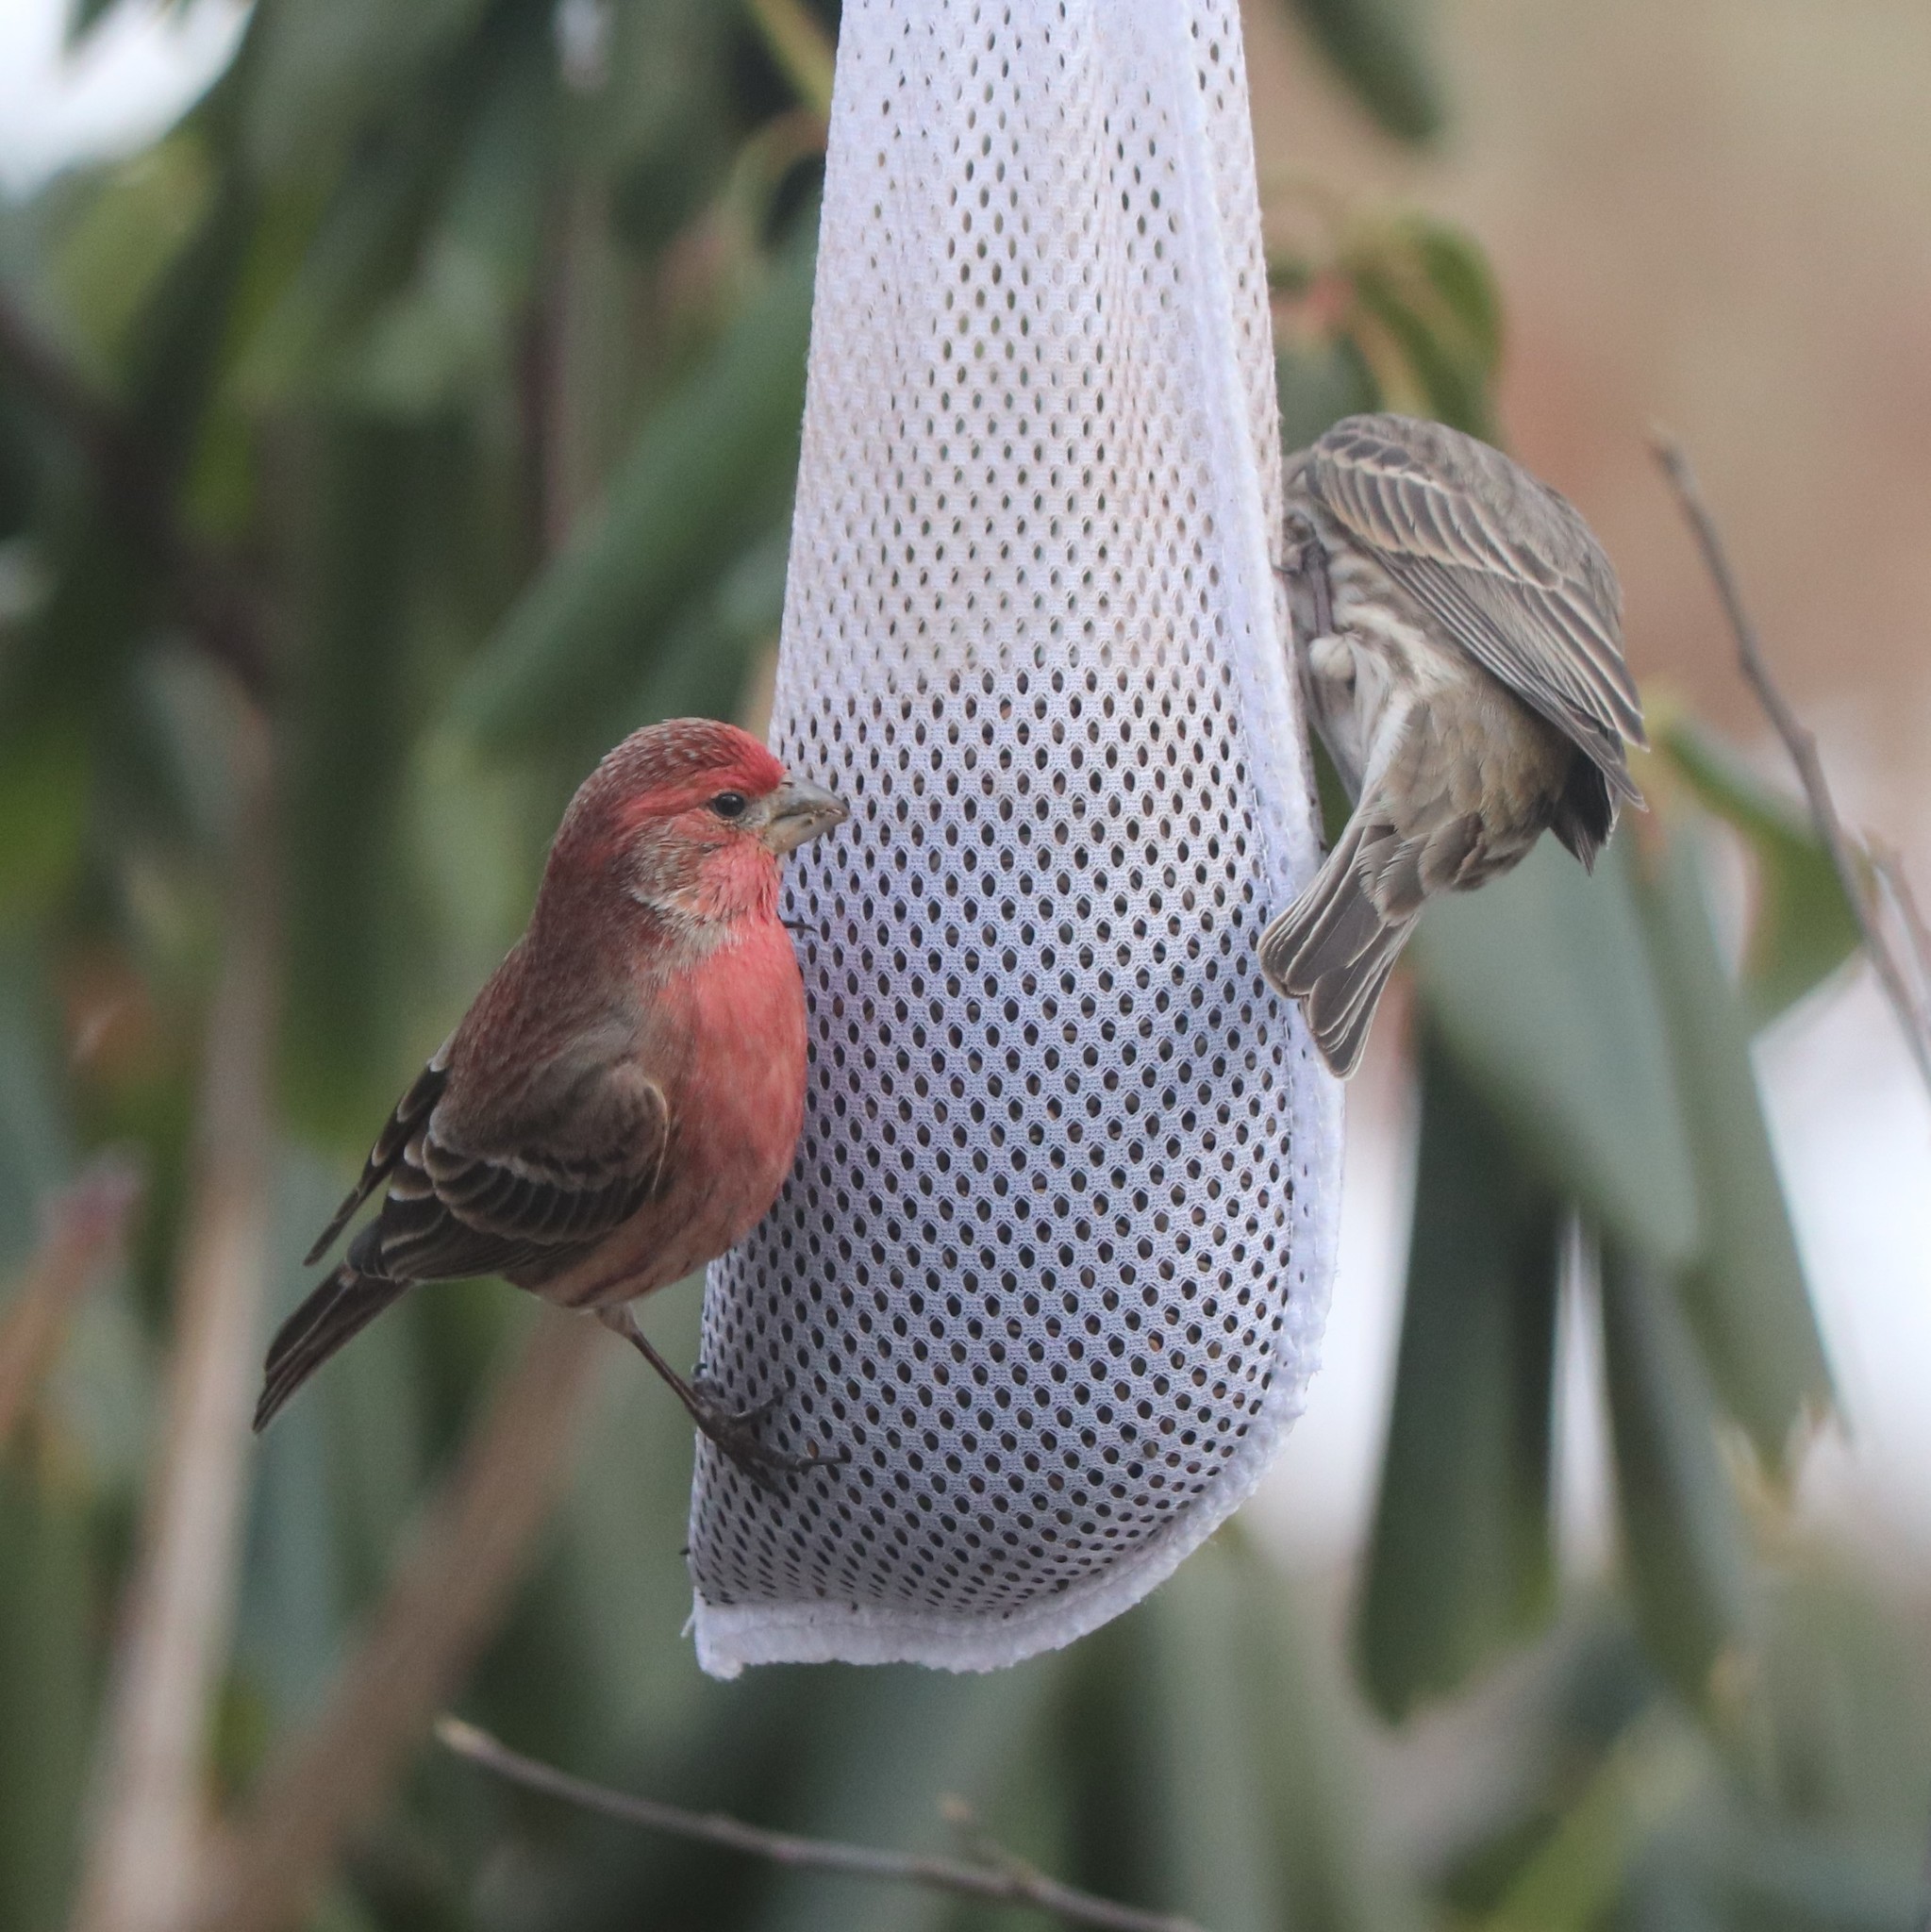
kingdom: Animalia
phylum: Chordata
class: Aves
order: Passeriformes
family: Fringillidae
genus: Haemorhous
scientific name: Haemorhous mexicanus
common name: House finch
